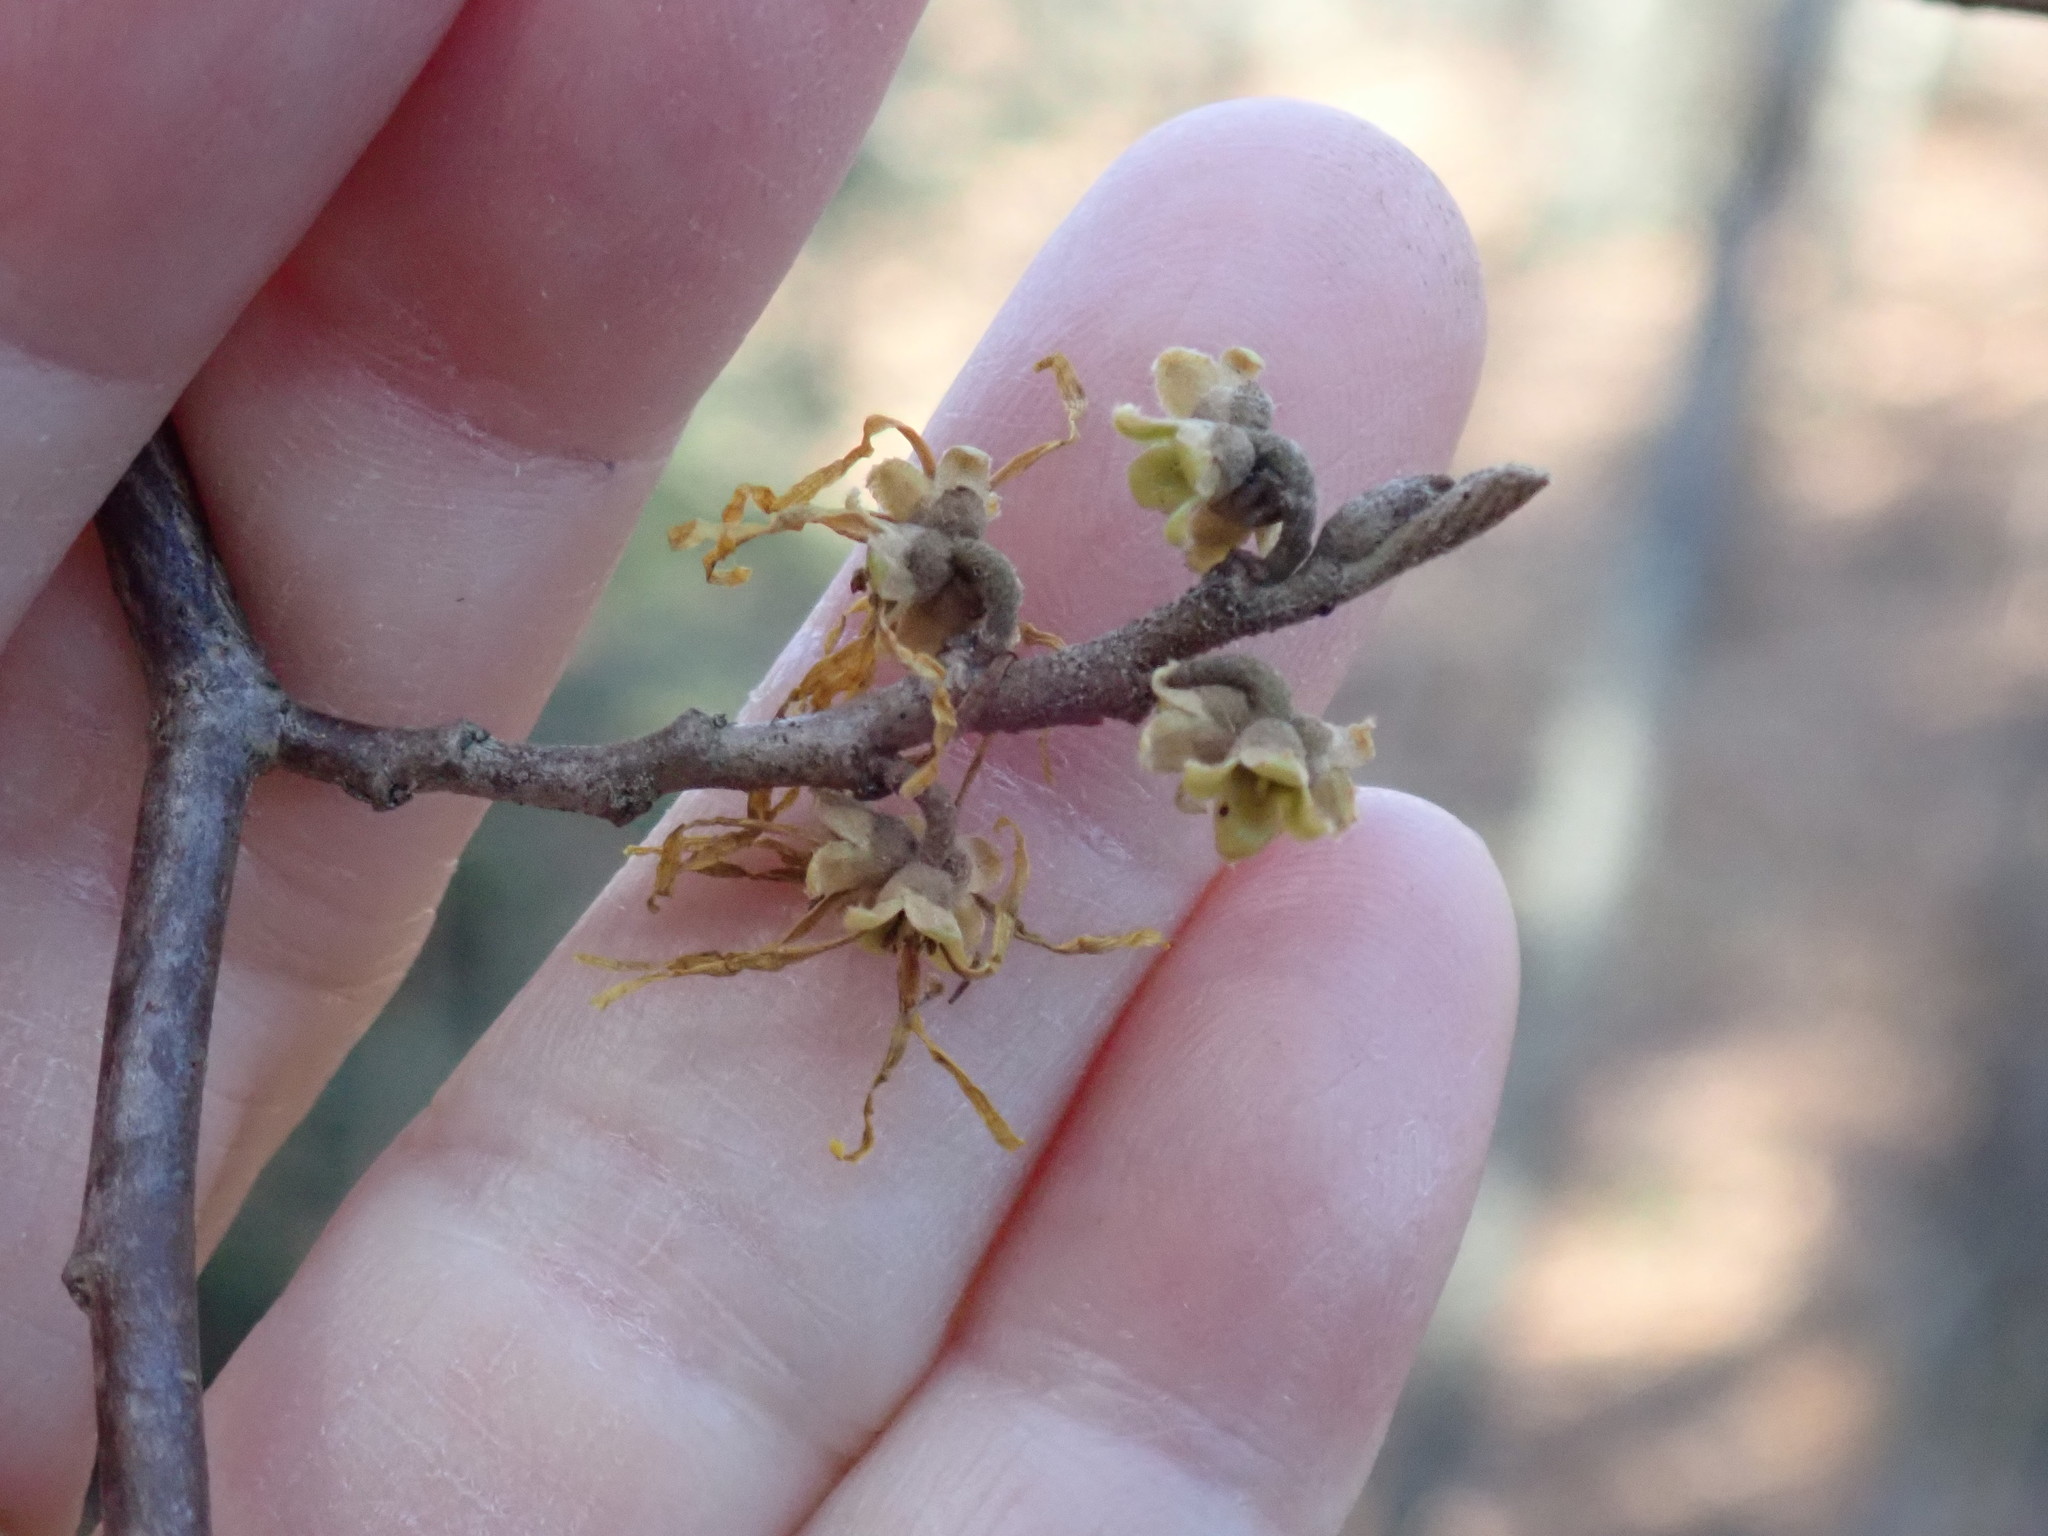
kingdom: Plantae
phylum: Tracheophyta
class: Magnoliopsida
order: Saxifragales
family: Hamamelidaceae
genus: Hamamelis
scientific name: Hamamelis virginiana
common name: Witch-hazel
